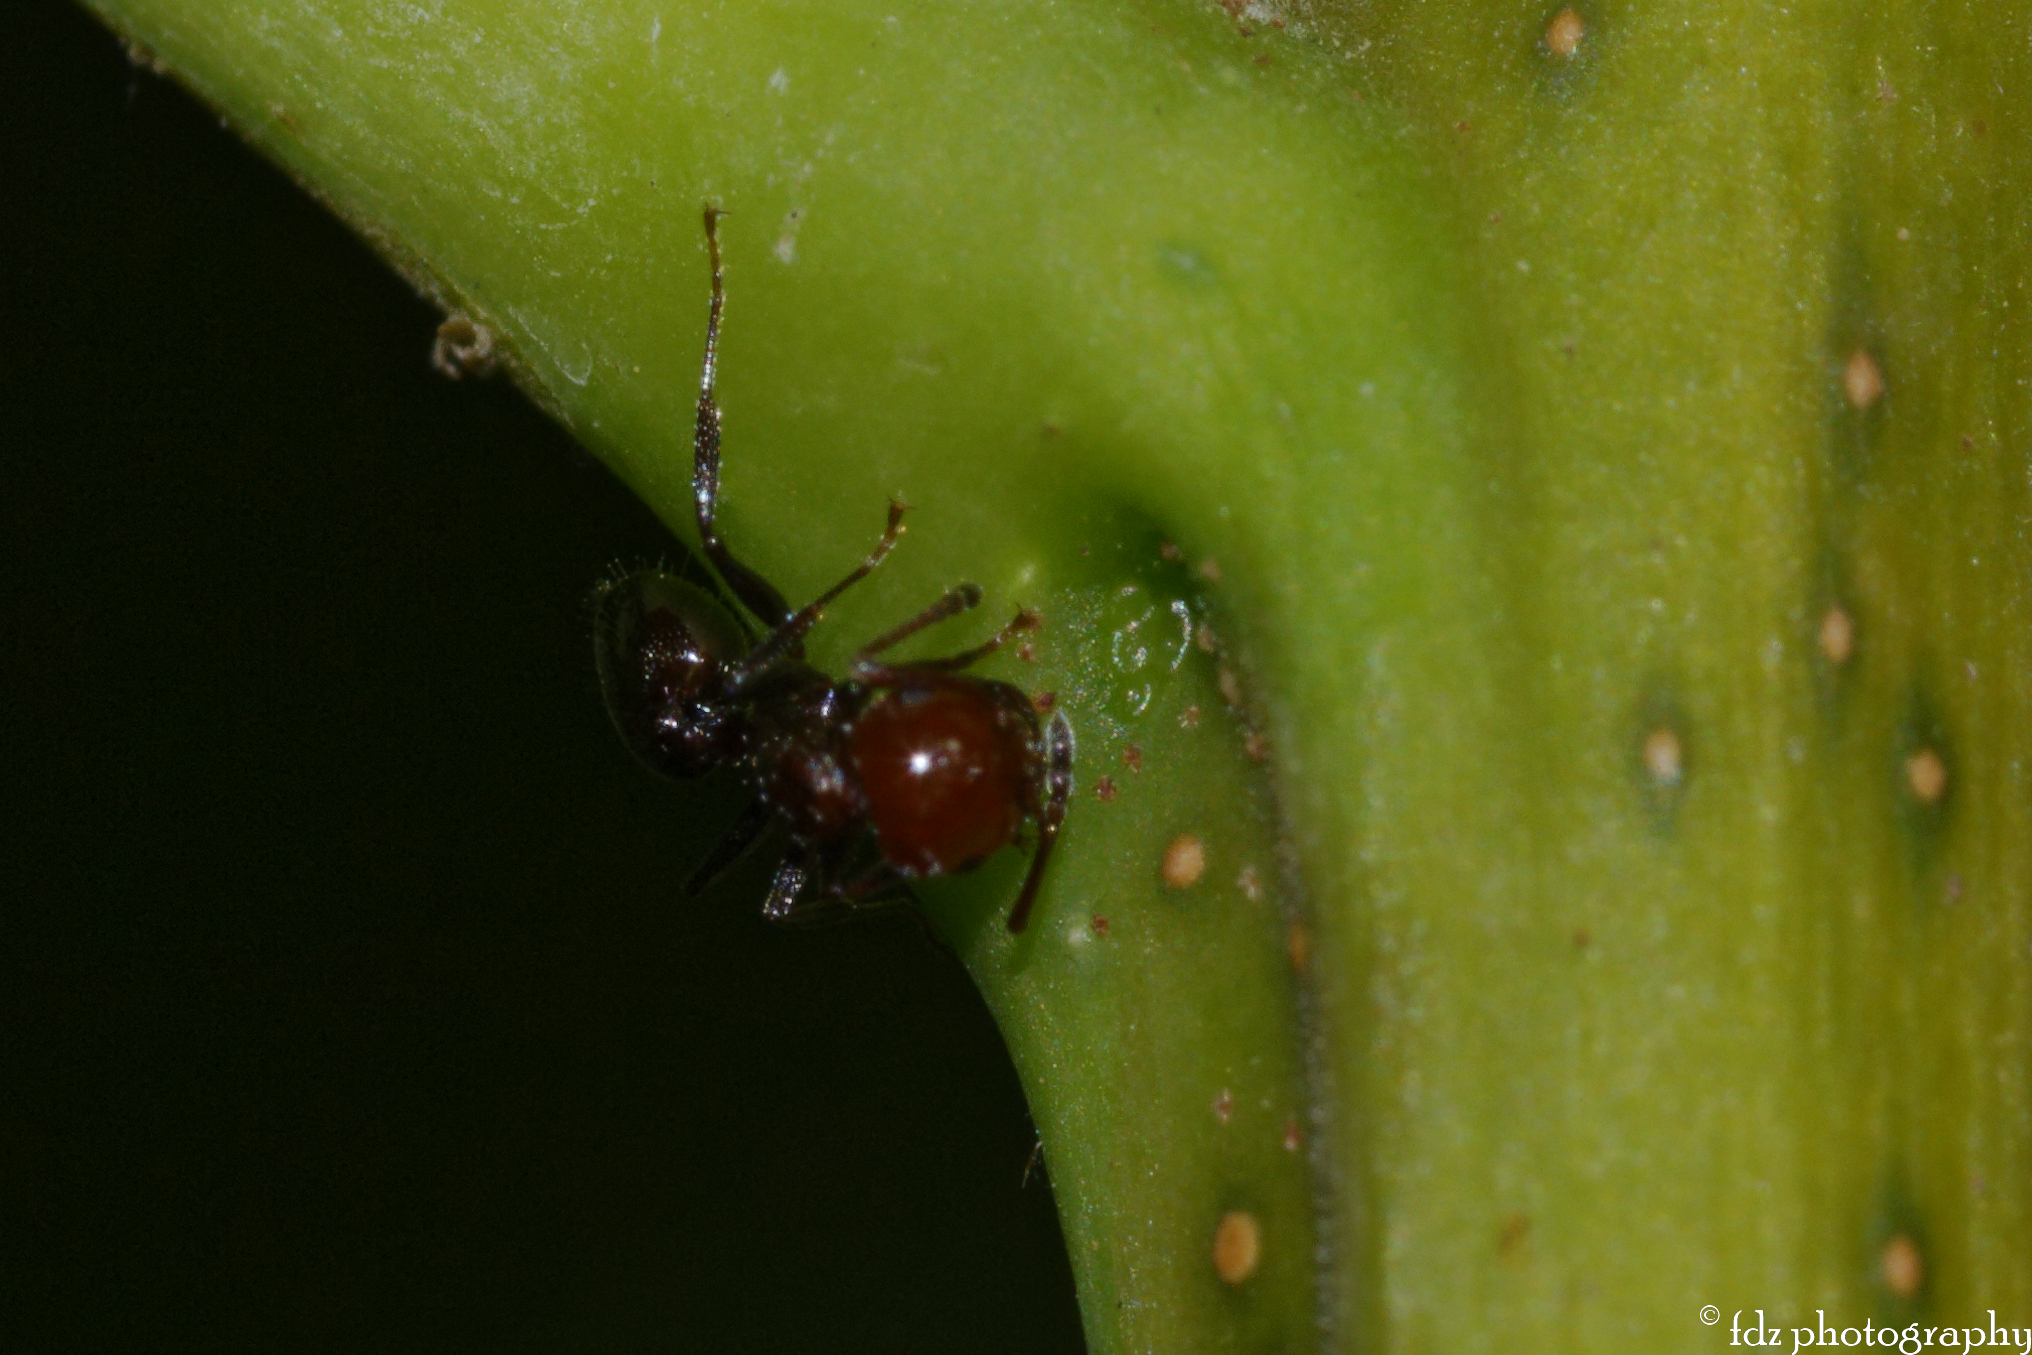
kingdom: Animalia
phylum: Arthropoda
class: Insecta
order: Hymenoptera
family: Formicidae
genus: Crematogaster
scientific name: Crematogaster scutellaris
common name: Fourmi du liège
